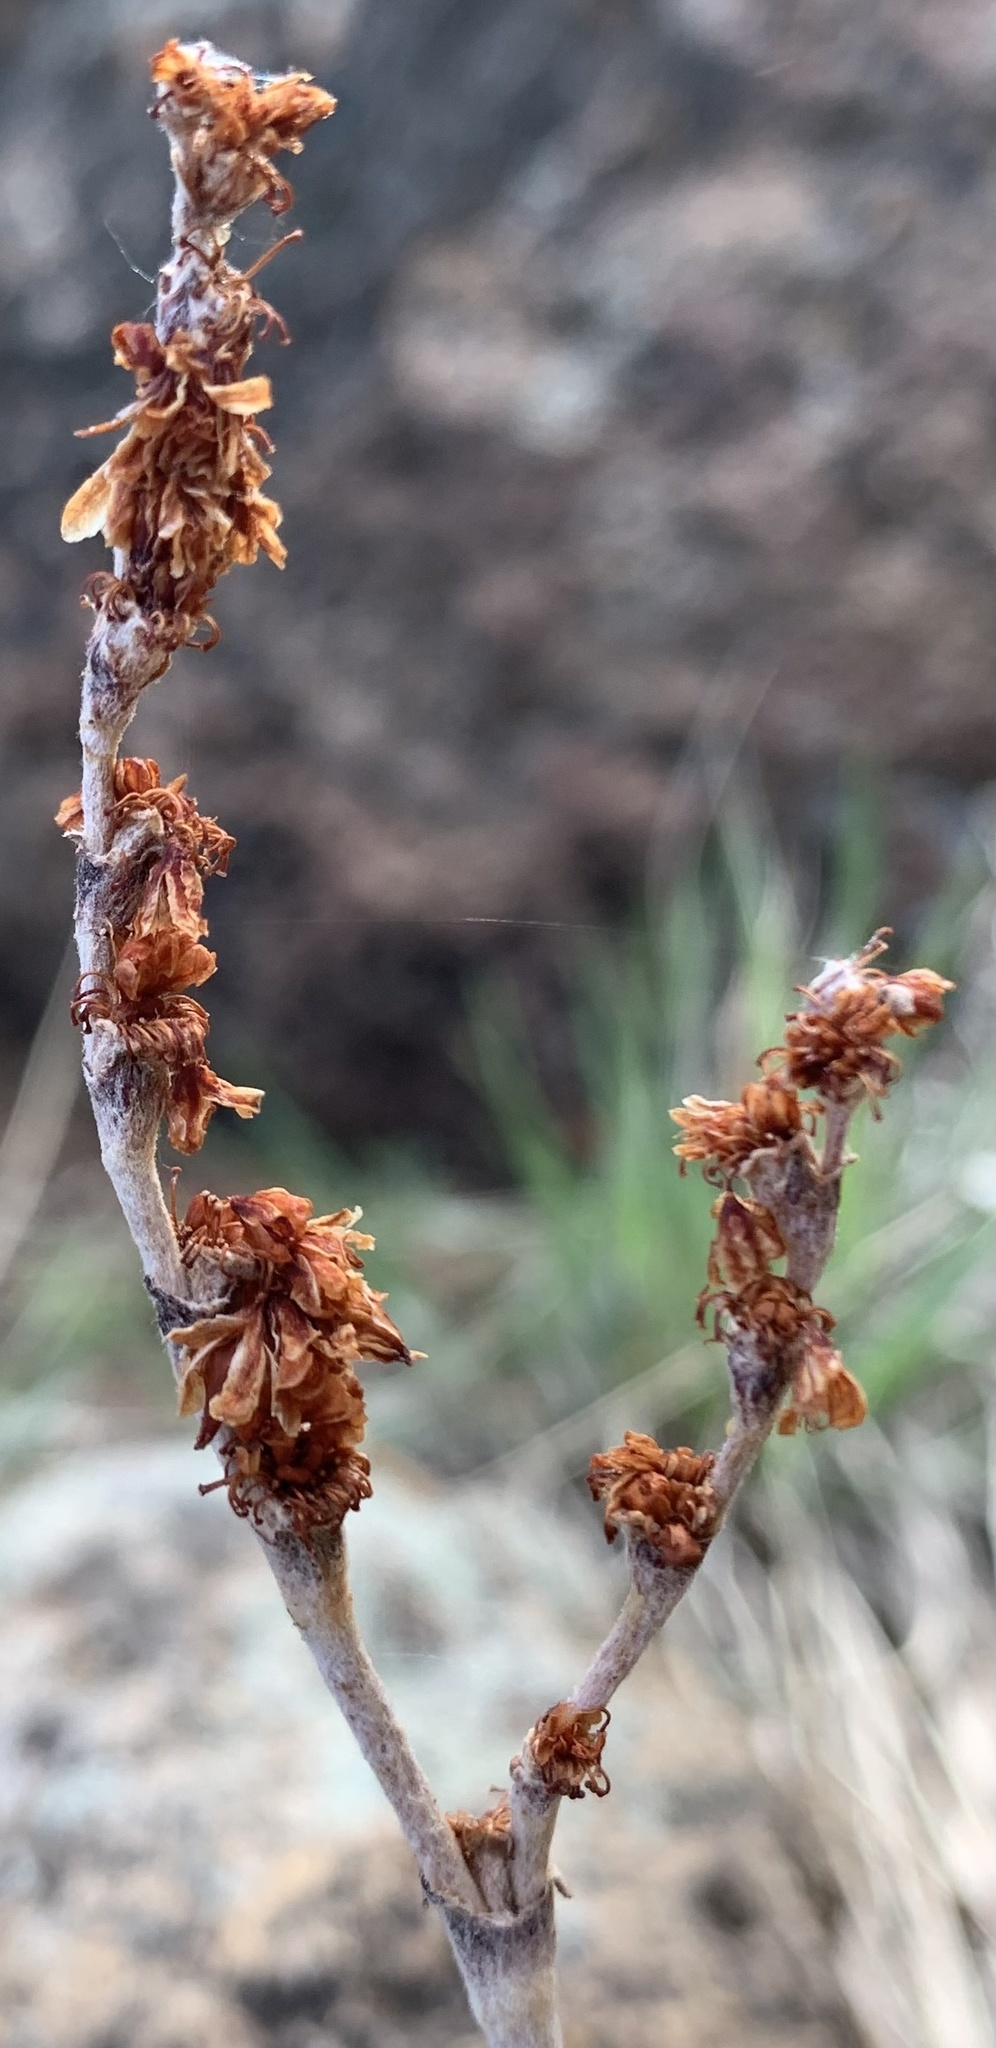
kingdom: Plantae
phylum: Tracheophyta
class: Magnoliopsida
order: Caryophyllales
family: Polygonaceae
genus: Eriogonum
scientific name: Eriogonum racemosum
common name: Redroot wild buckwheat
